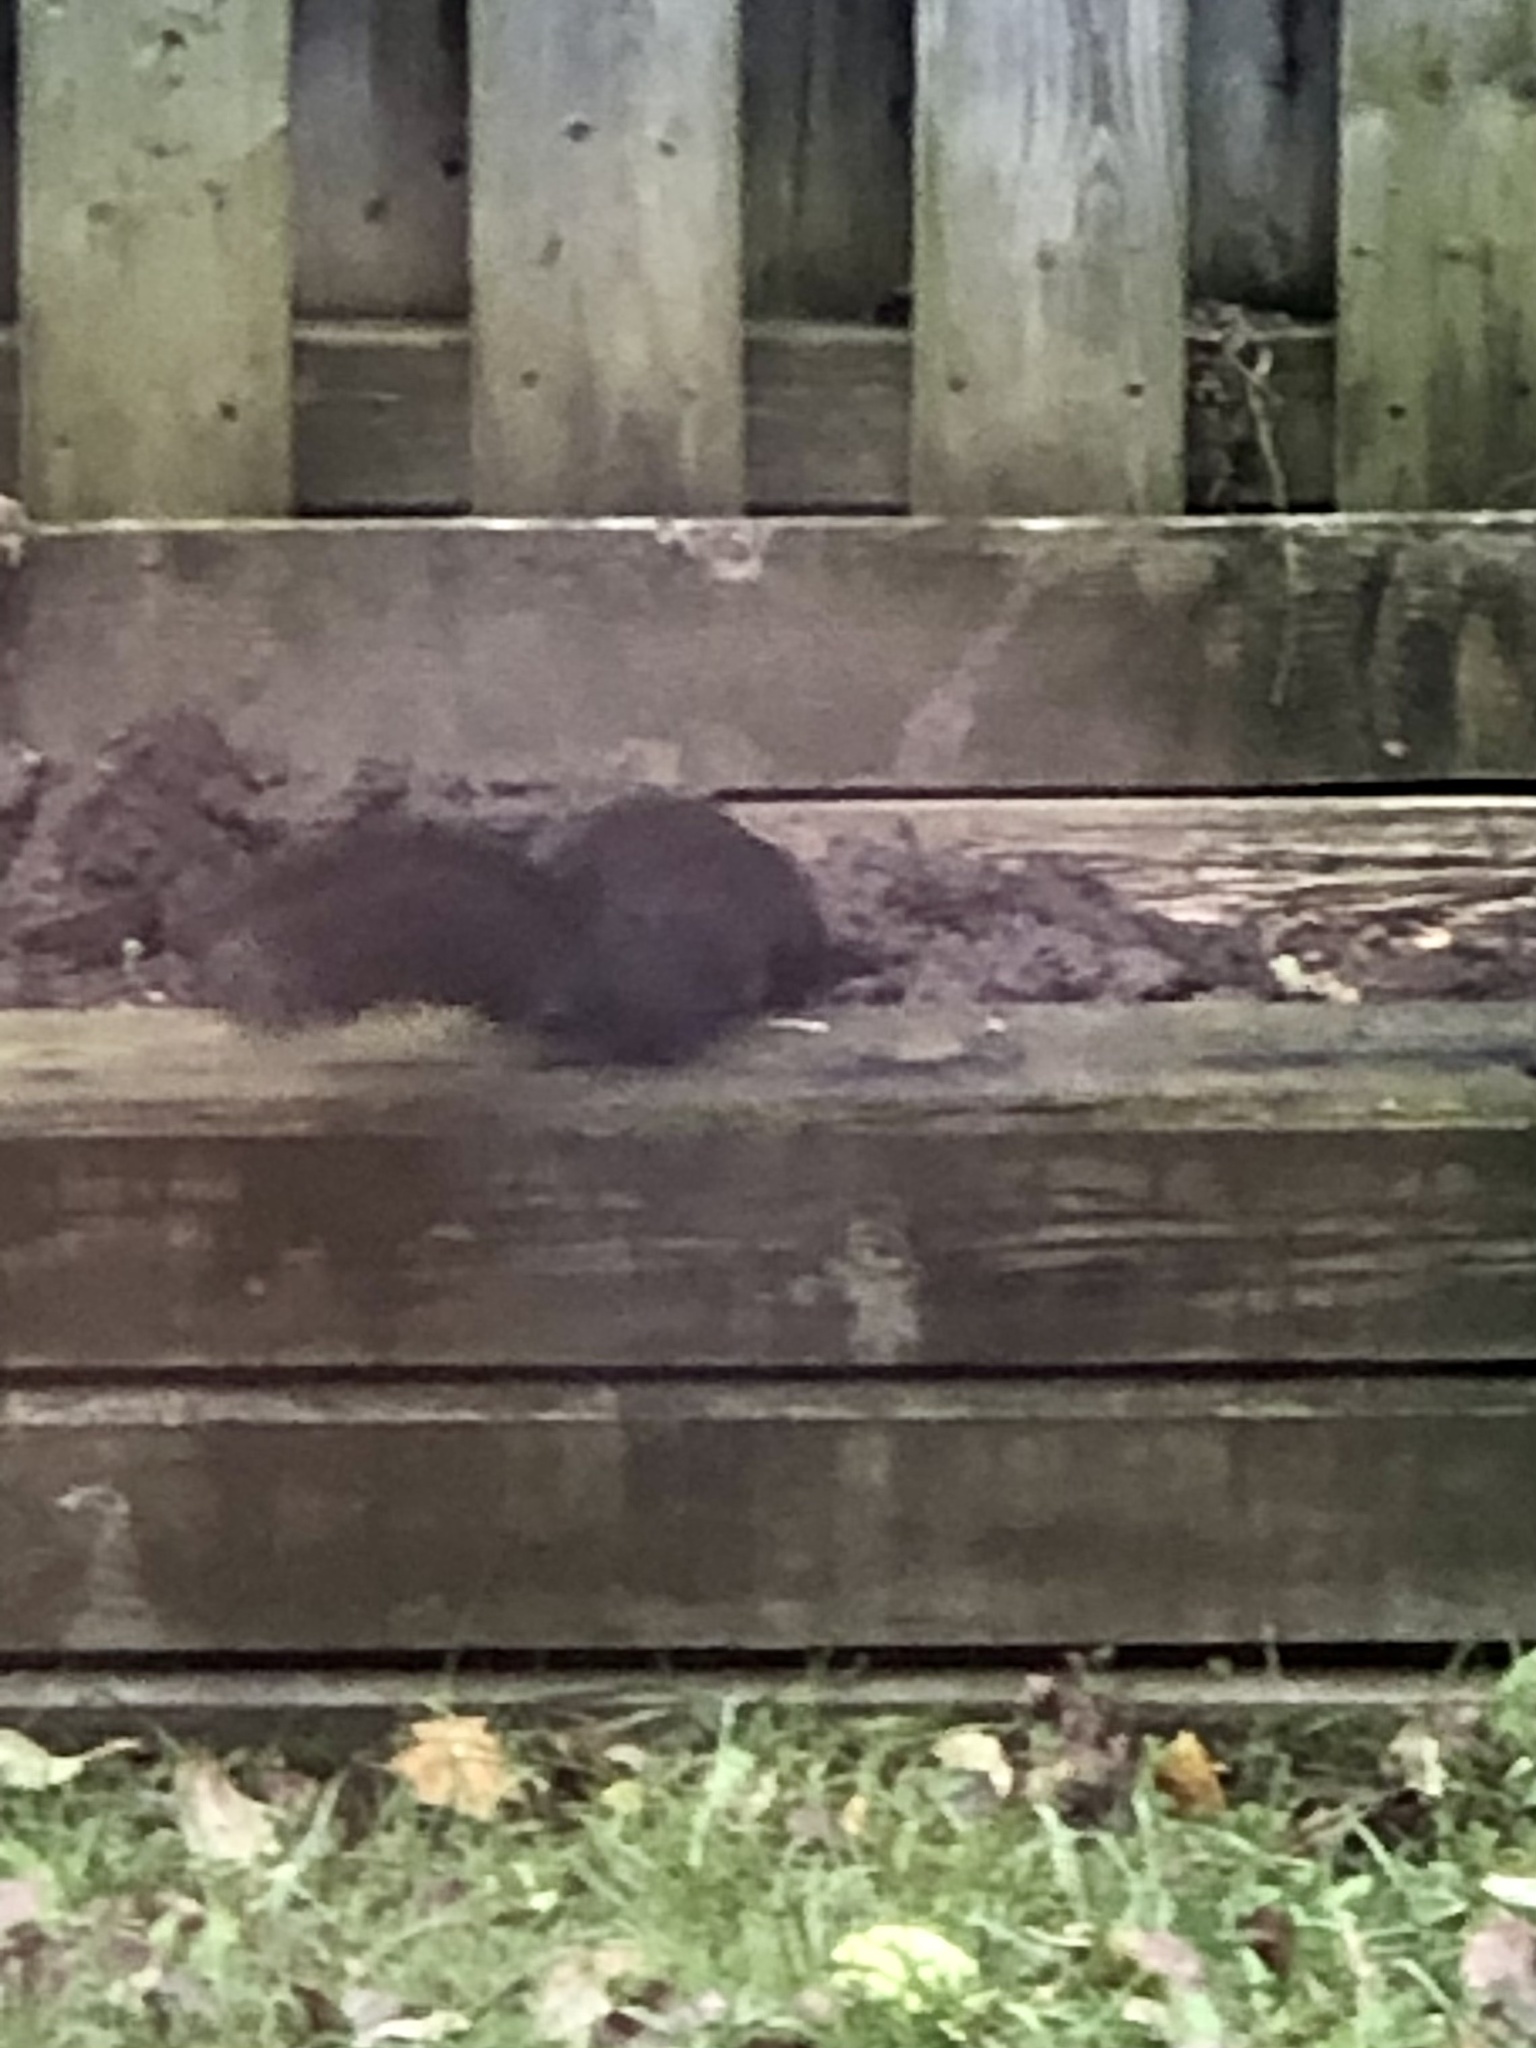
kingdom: Animalia
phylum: Chordata
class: Mammalia
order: Rodentia
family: Sciuridae
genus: Sciurus
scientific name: Sciurus carolinensis
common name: Eastern gray squirrel
